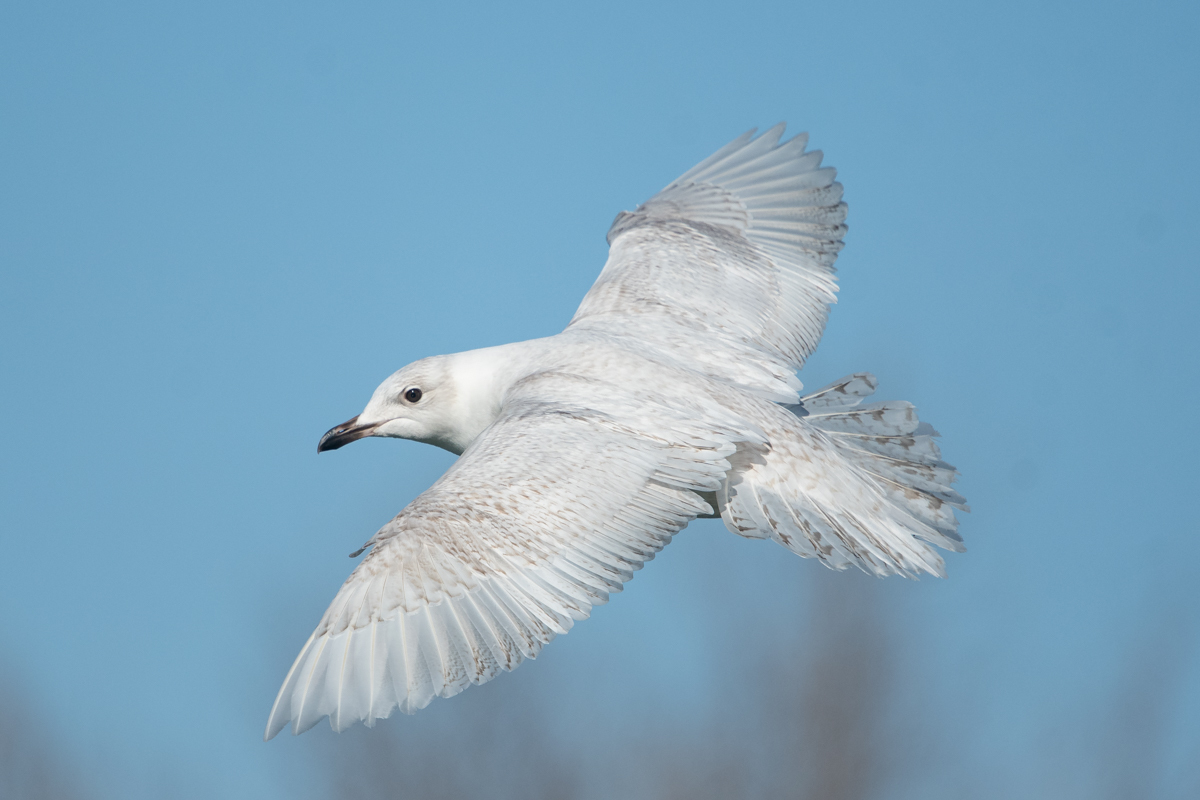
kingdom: Animalia
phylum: Chordata
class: Aves
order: Charadriiformes
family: Laridae
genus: Larus
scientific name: Larus glaucoides
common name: Iceland gull
